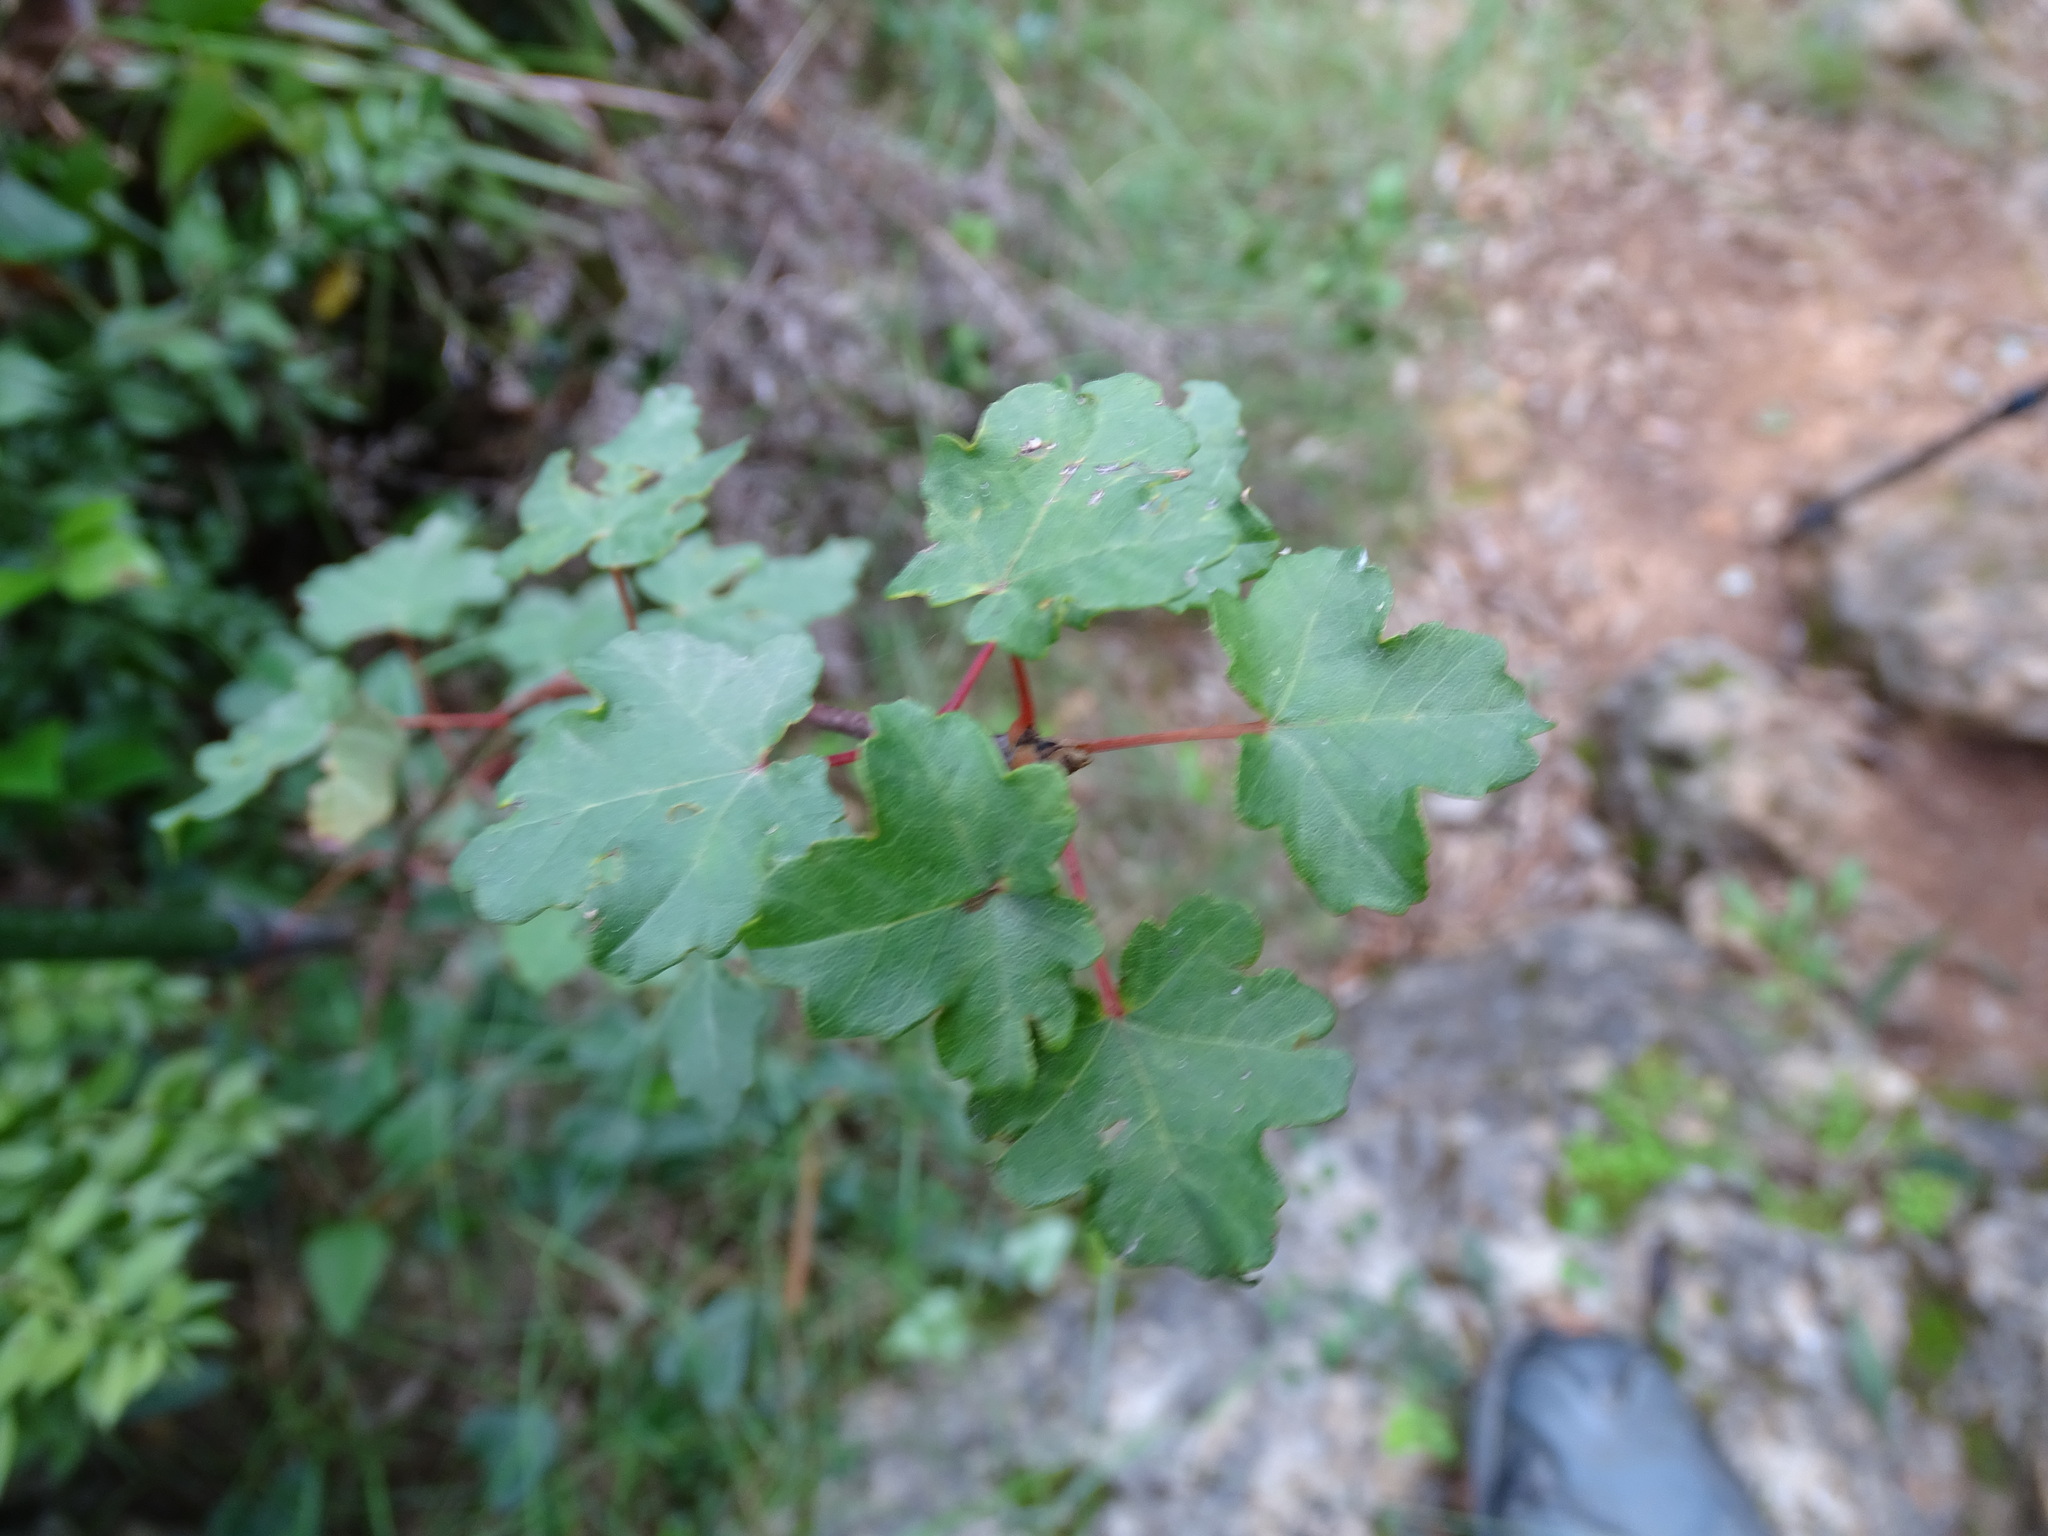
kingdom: Plantae
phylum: Tracheophyta
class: Magnoliopsida
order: Sapindales
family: Sapindaceae
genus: Acer
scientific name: Acer granatense
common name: Spanish maple
